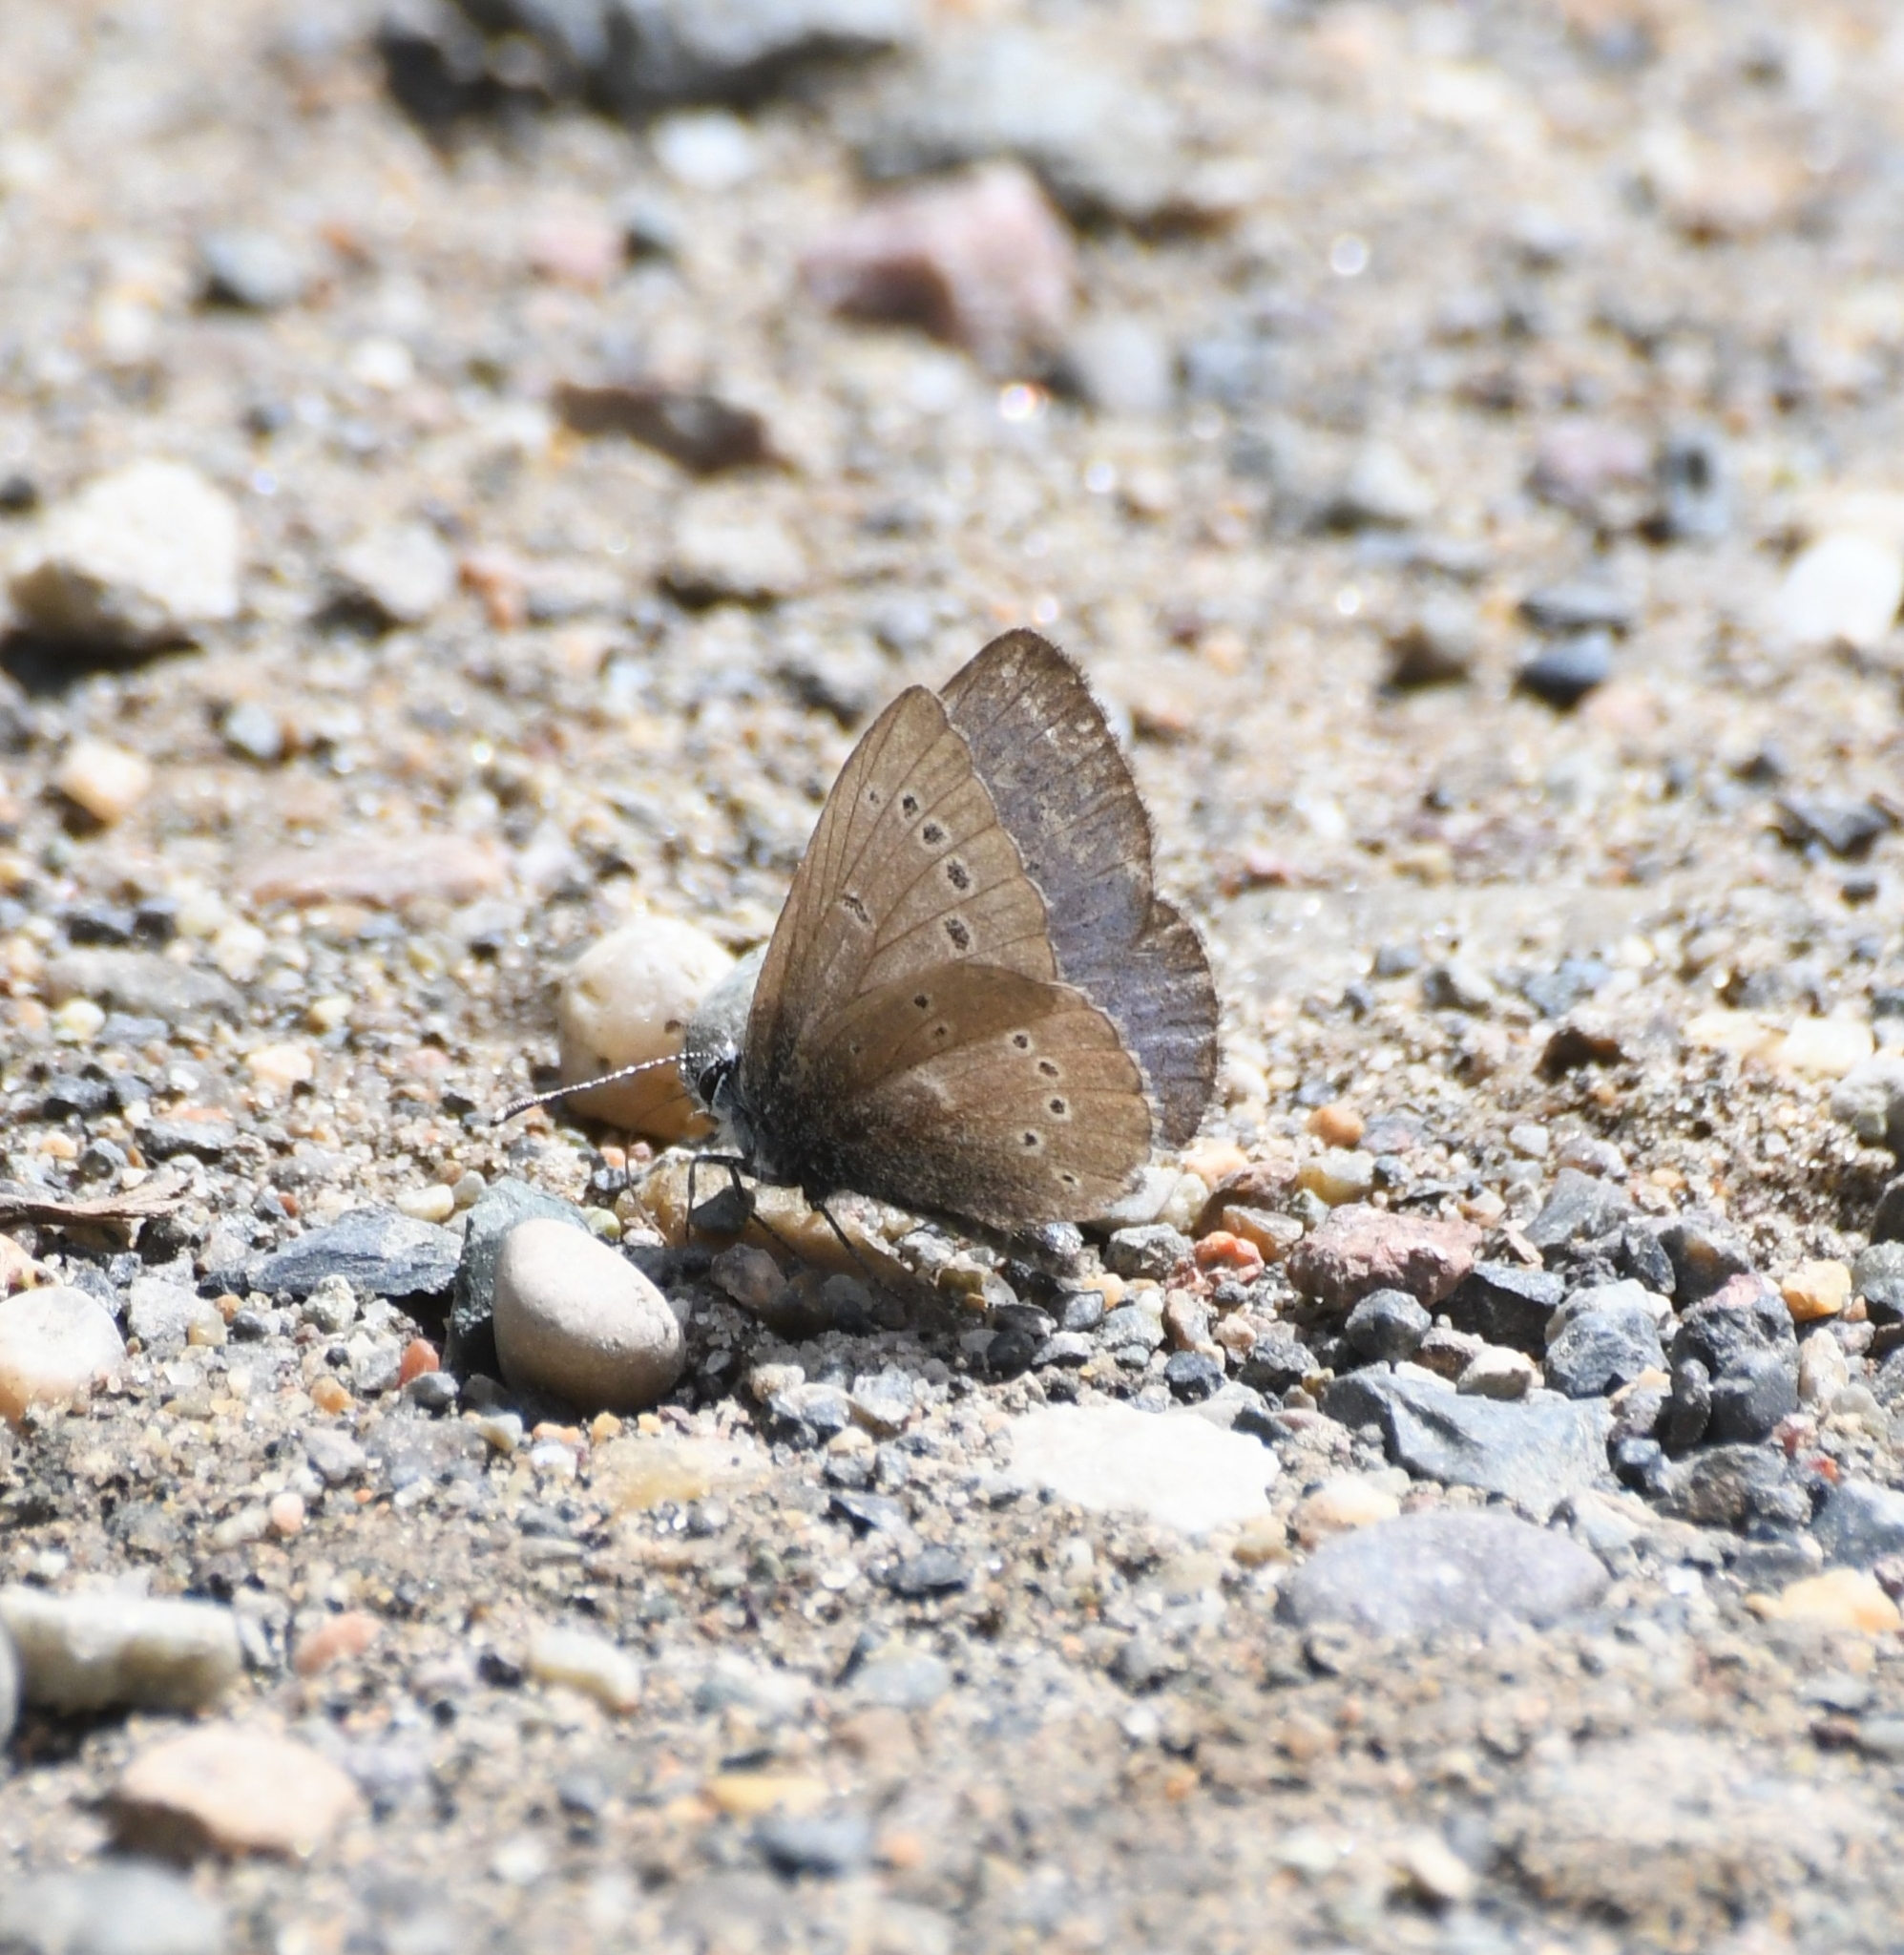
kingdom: Animalia
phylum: Arthropoda
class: Insecta
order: Lepidoptera
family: Lycaenidae
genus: Glaucopsyche
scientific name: Glaucopsyche lygdamus
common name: Silvery blue
